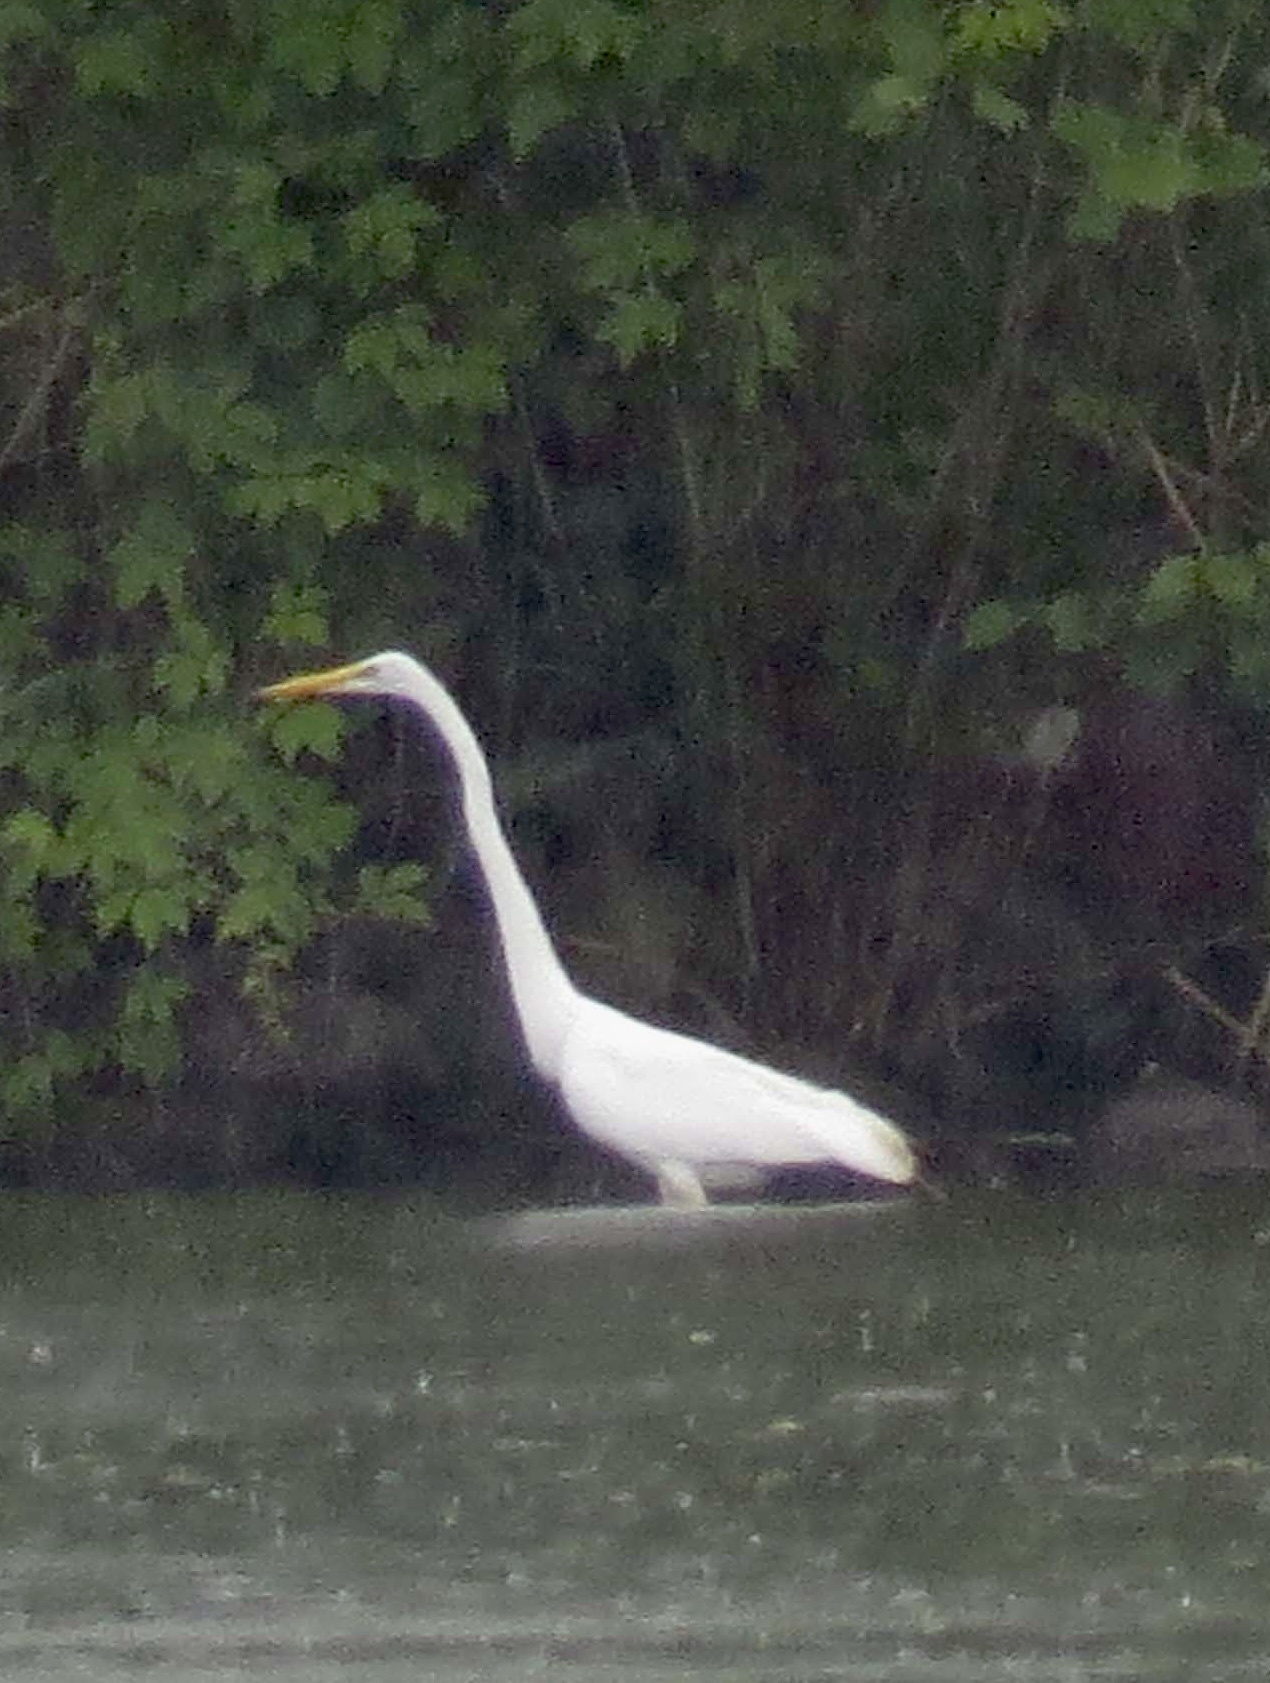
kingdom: Animalia
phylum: Chordata
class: Aves
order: Pelecaniformes
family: Ardeidae
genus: Ardea
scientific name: Ardea alba
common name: Great egret
